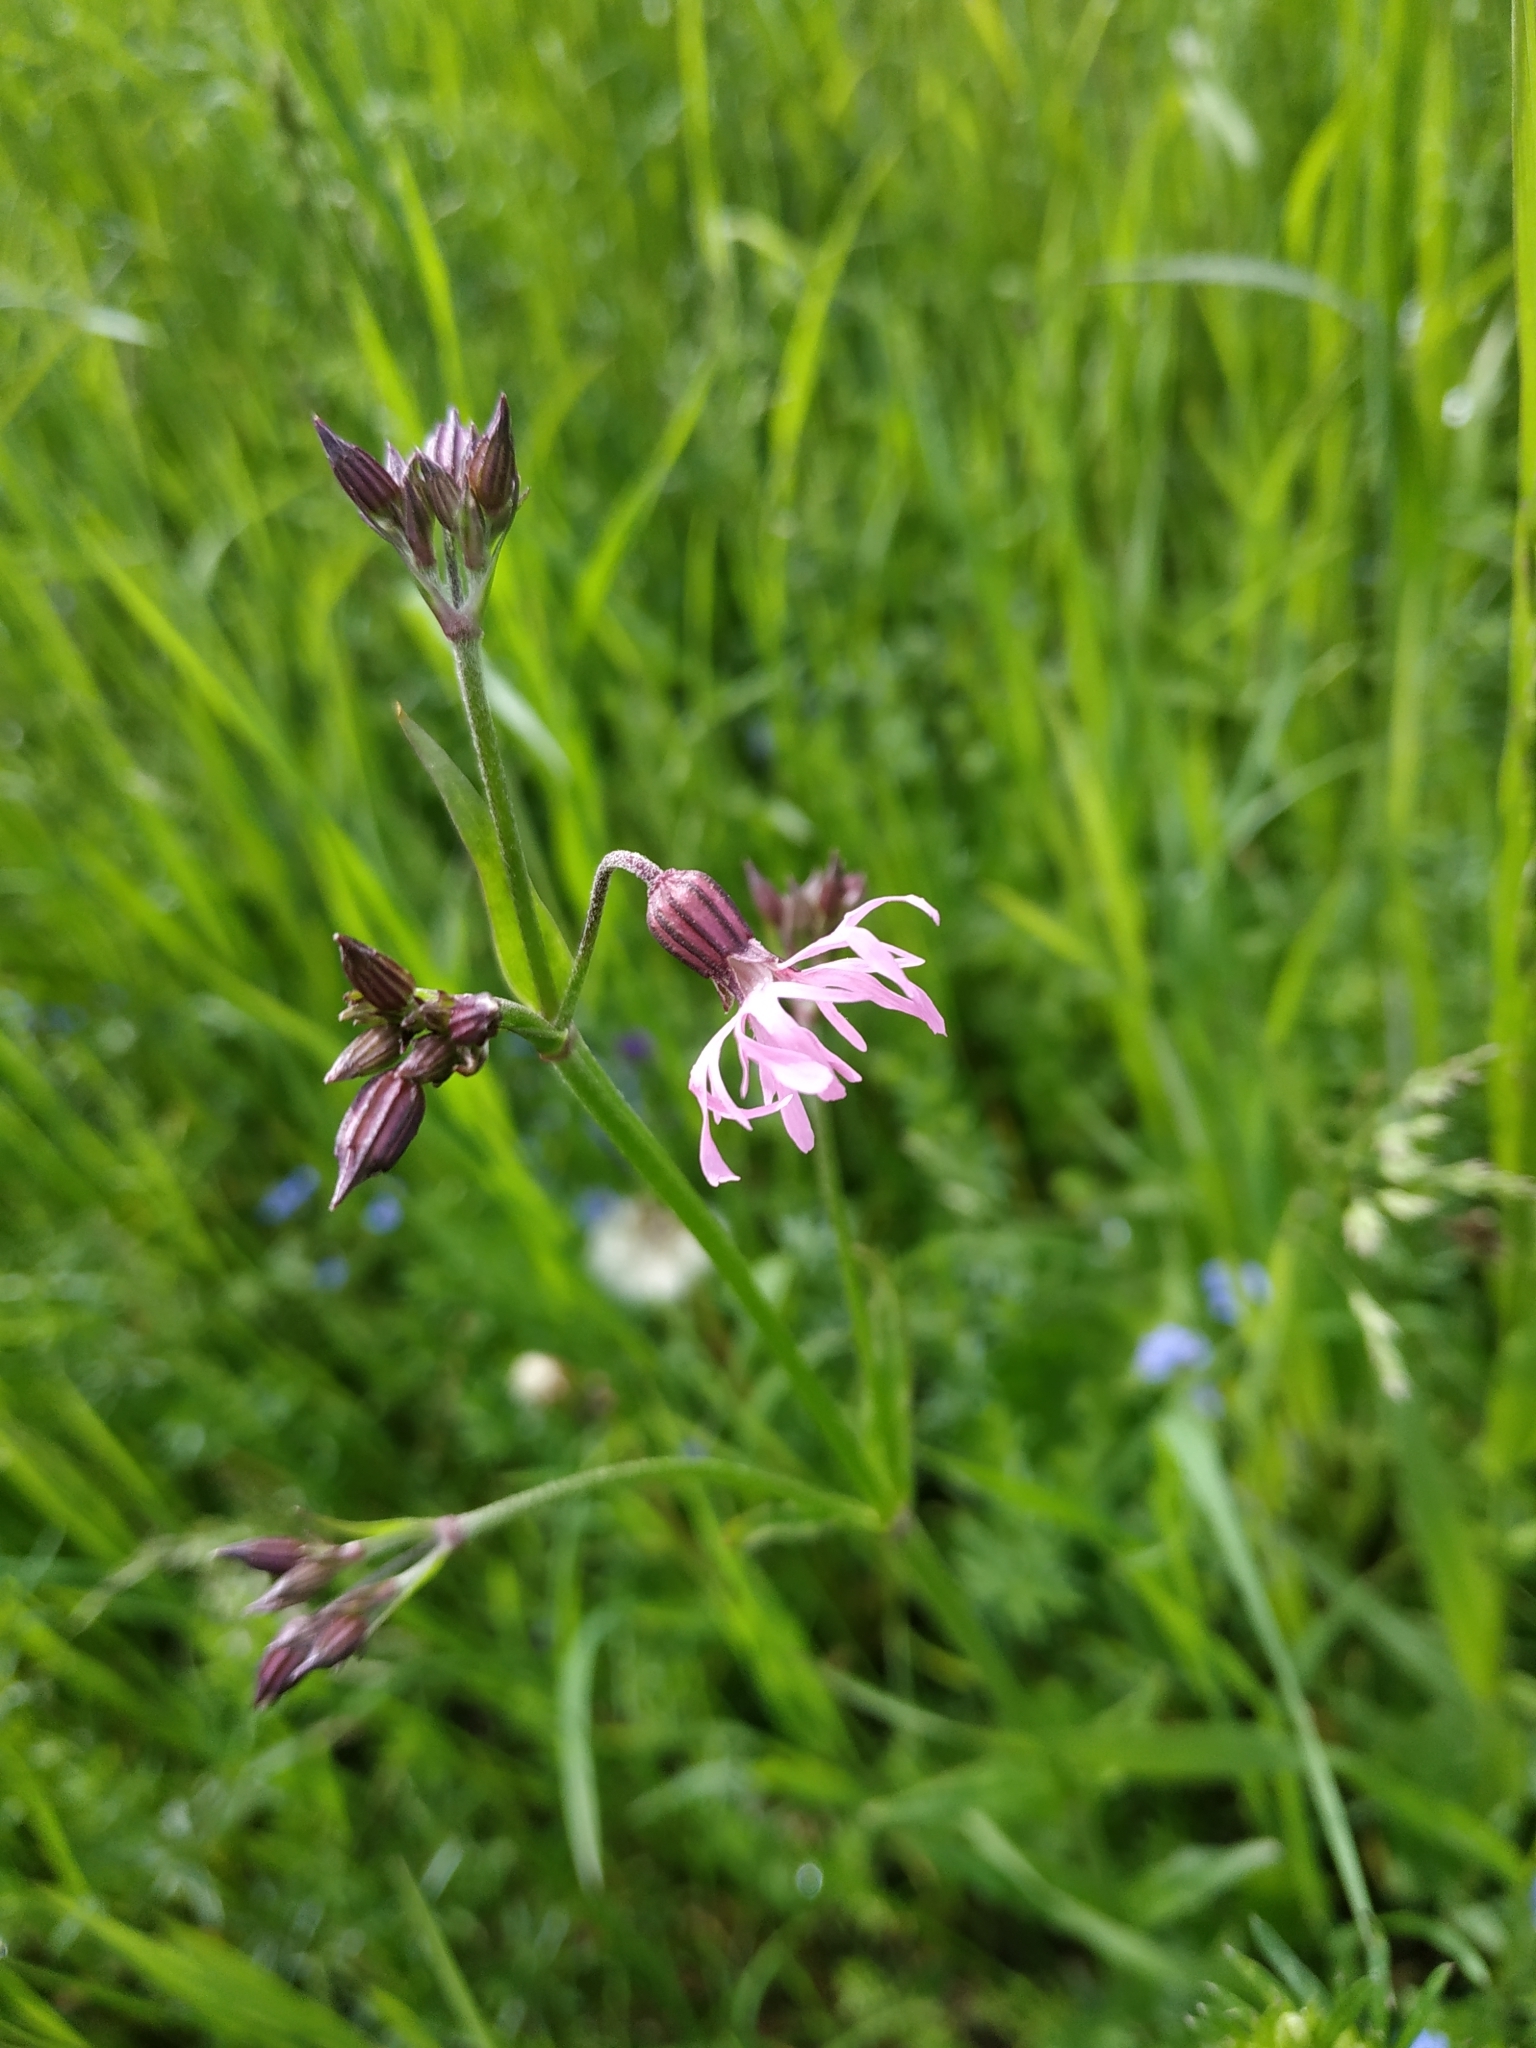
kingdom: Plantae
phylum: Tracheophyta
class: Magnoliopsida
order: Caryophyllales
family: Caryophyllaceae
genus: Silene
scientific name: Silene flos-cuculi
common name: Ragged-robin
